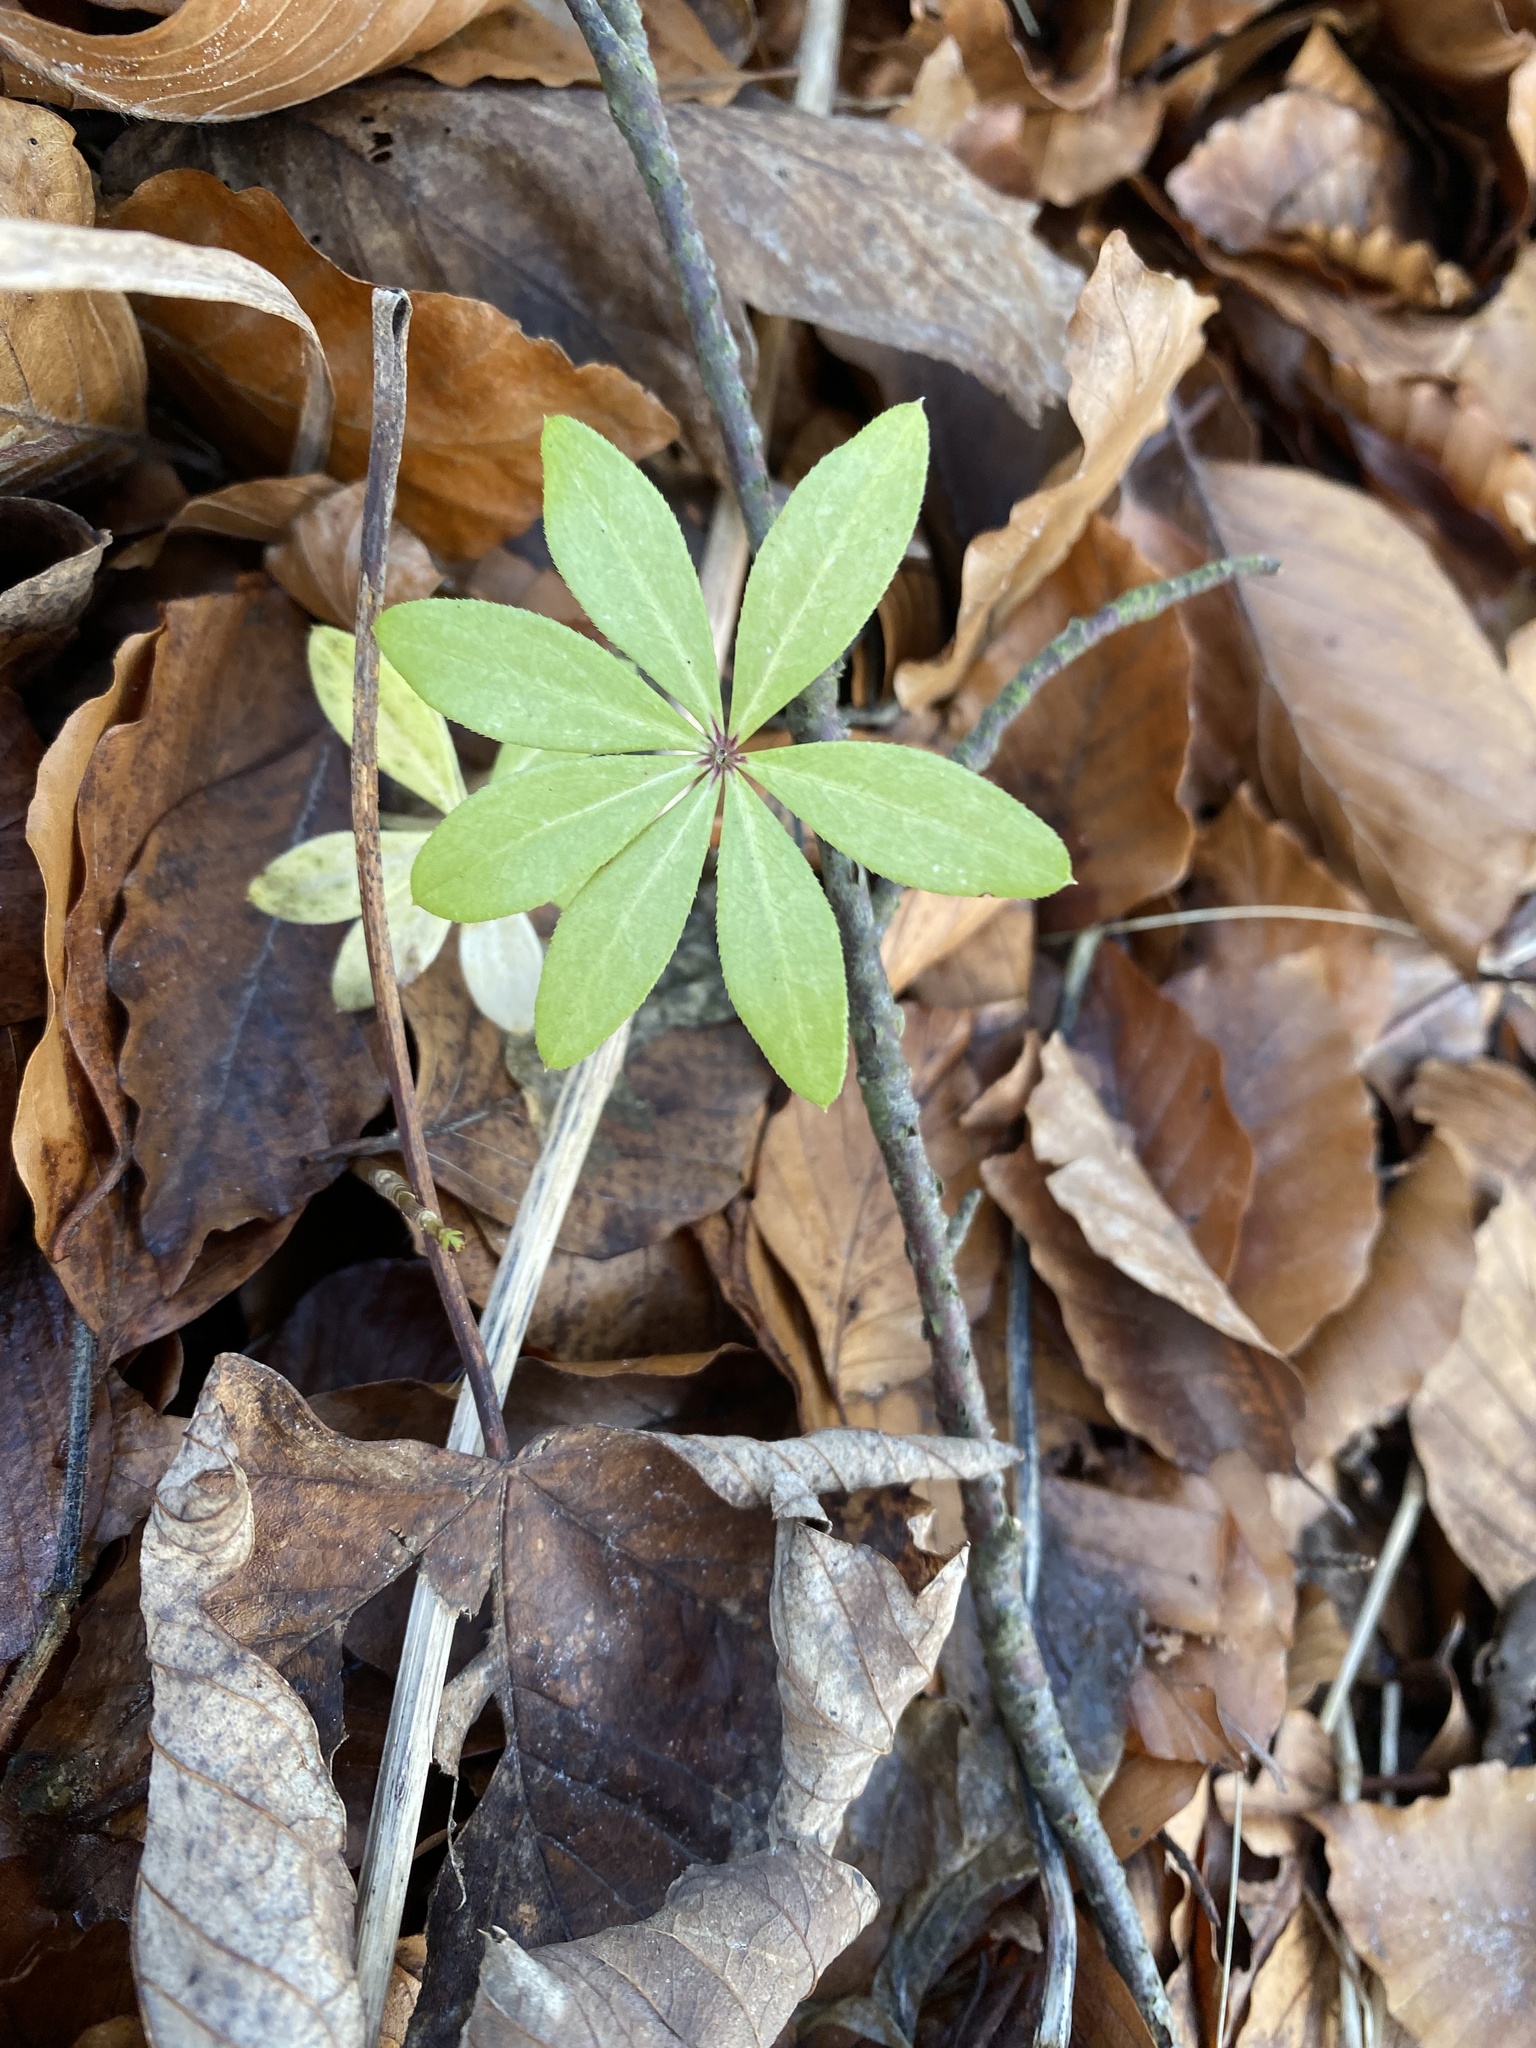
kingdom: Plantae
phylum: Tracheophyta
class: Magnoliopsida
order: Gentianales
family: Rubiaceae
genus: Galium
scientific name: Galium odoratum
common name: Sweet woodruff
